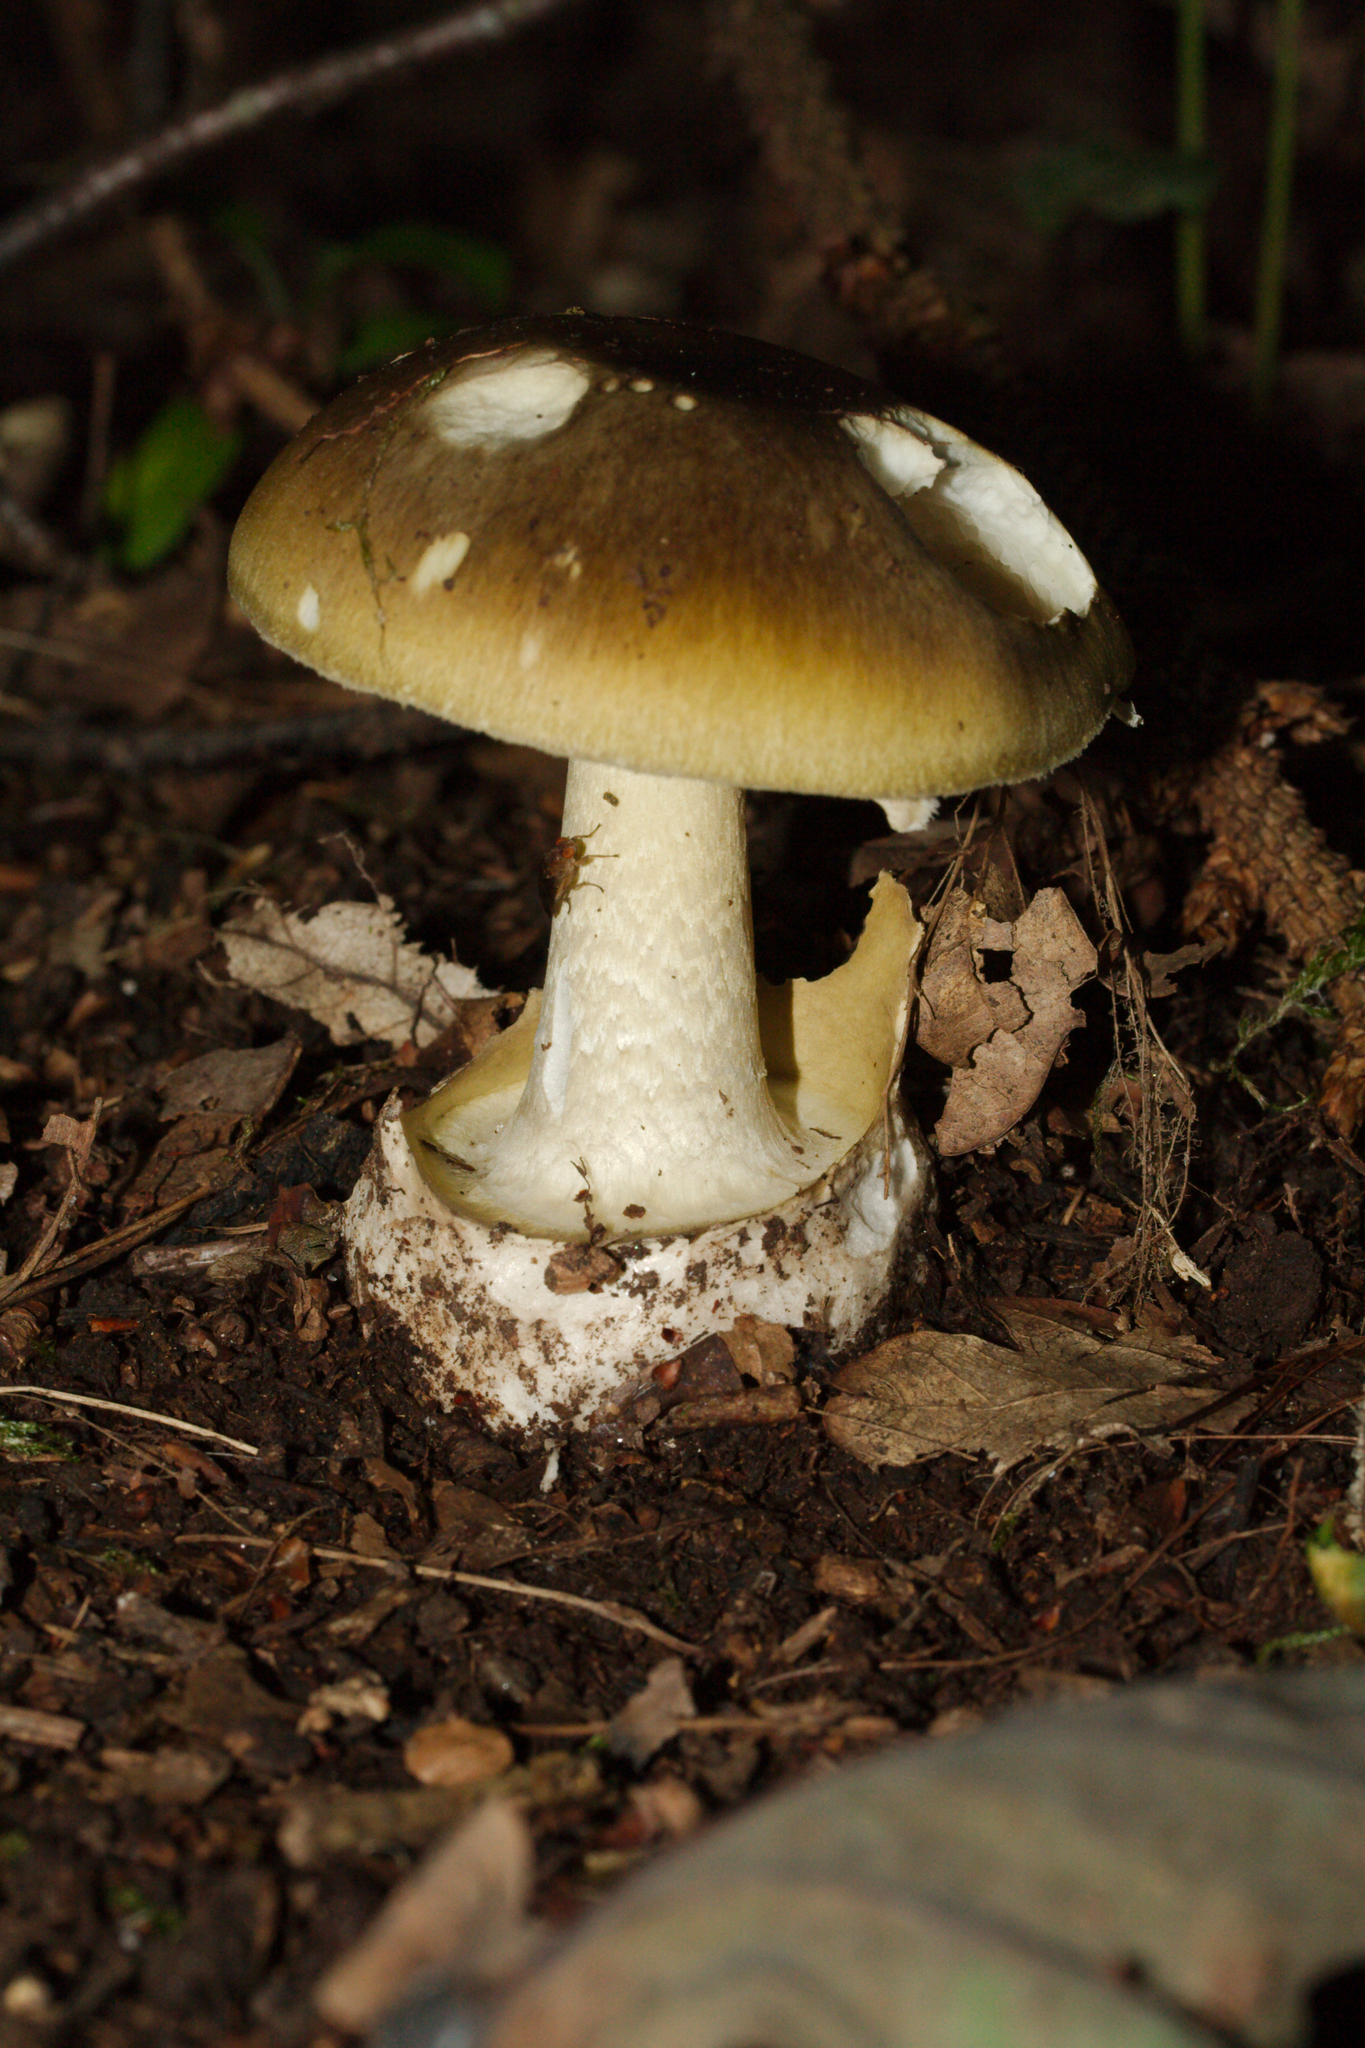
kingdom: Fungi
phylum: Basidiomycota
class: Agaricomycetes
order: Agaricales
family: Amanitaceae
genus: Amanita
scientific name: Amanita phalloides
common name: Death cap
